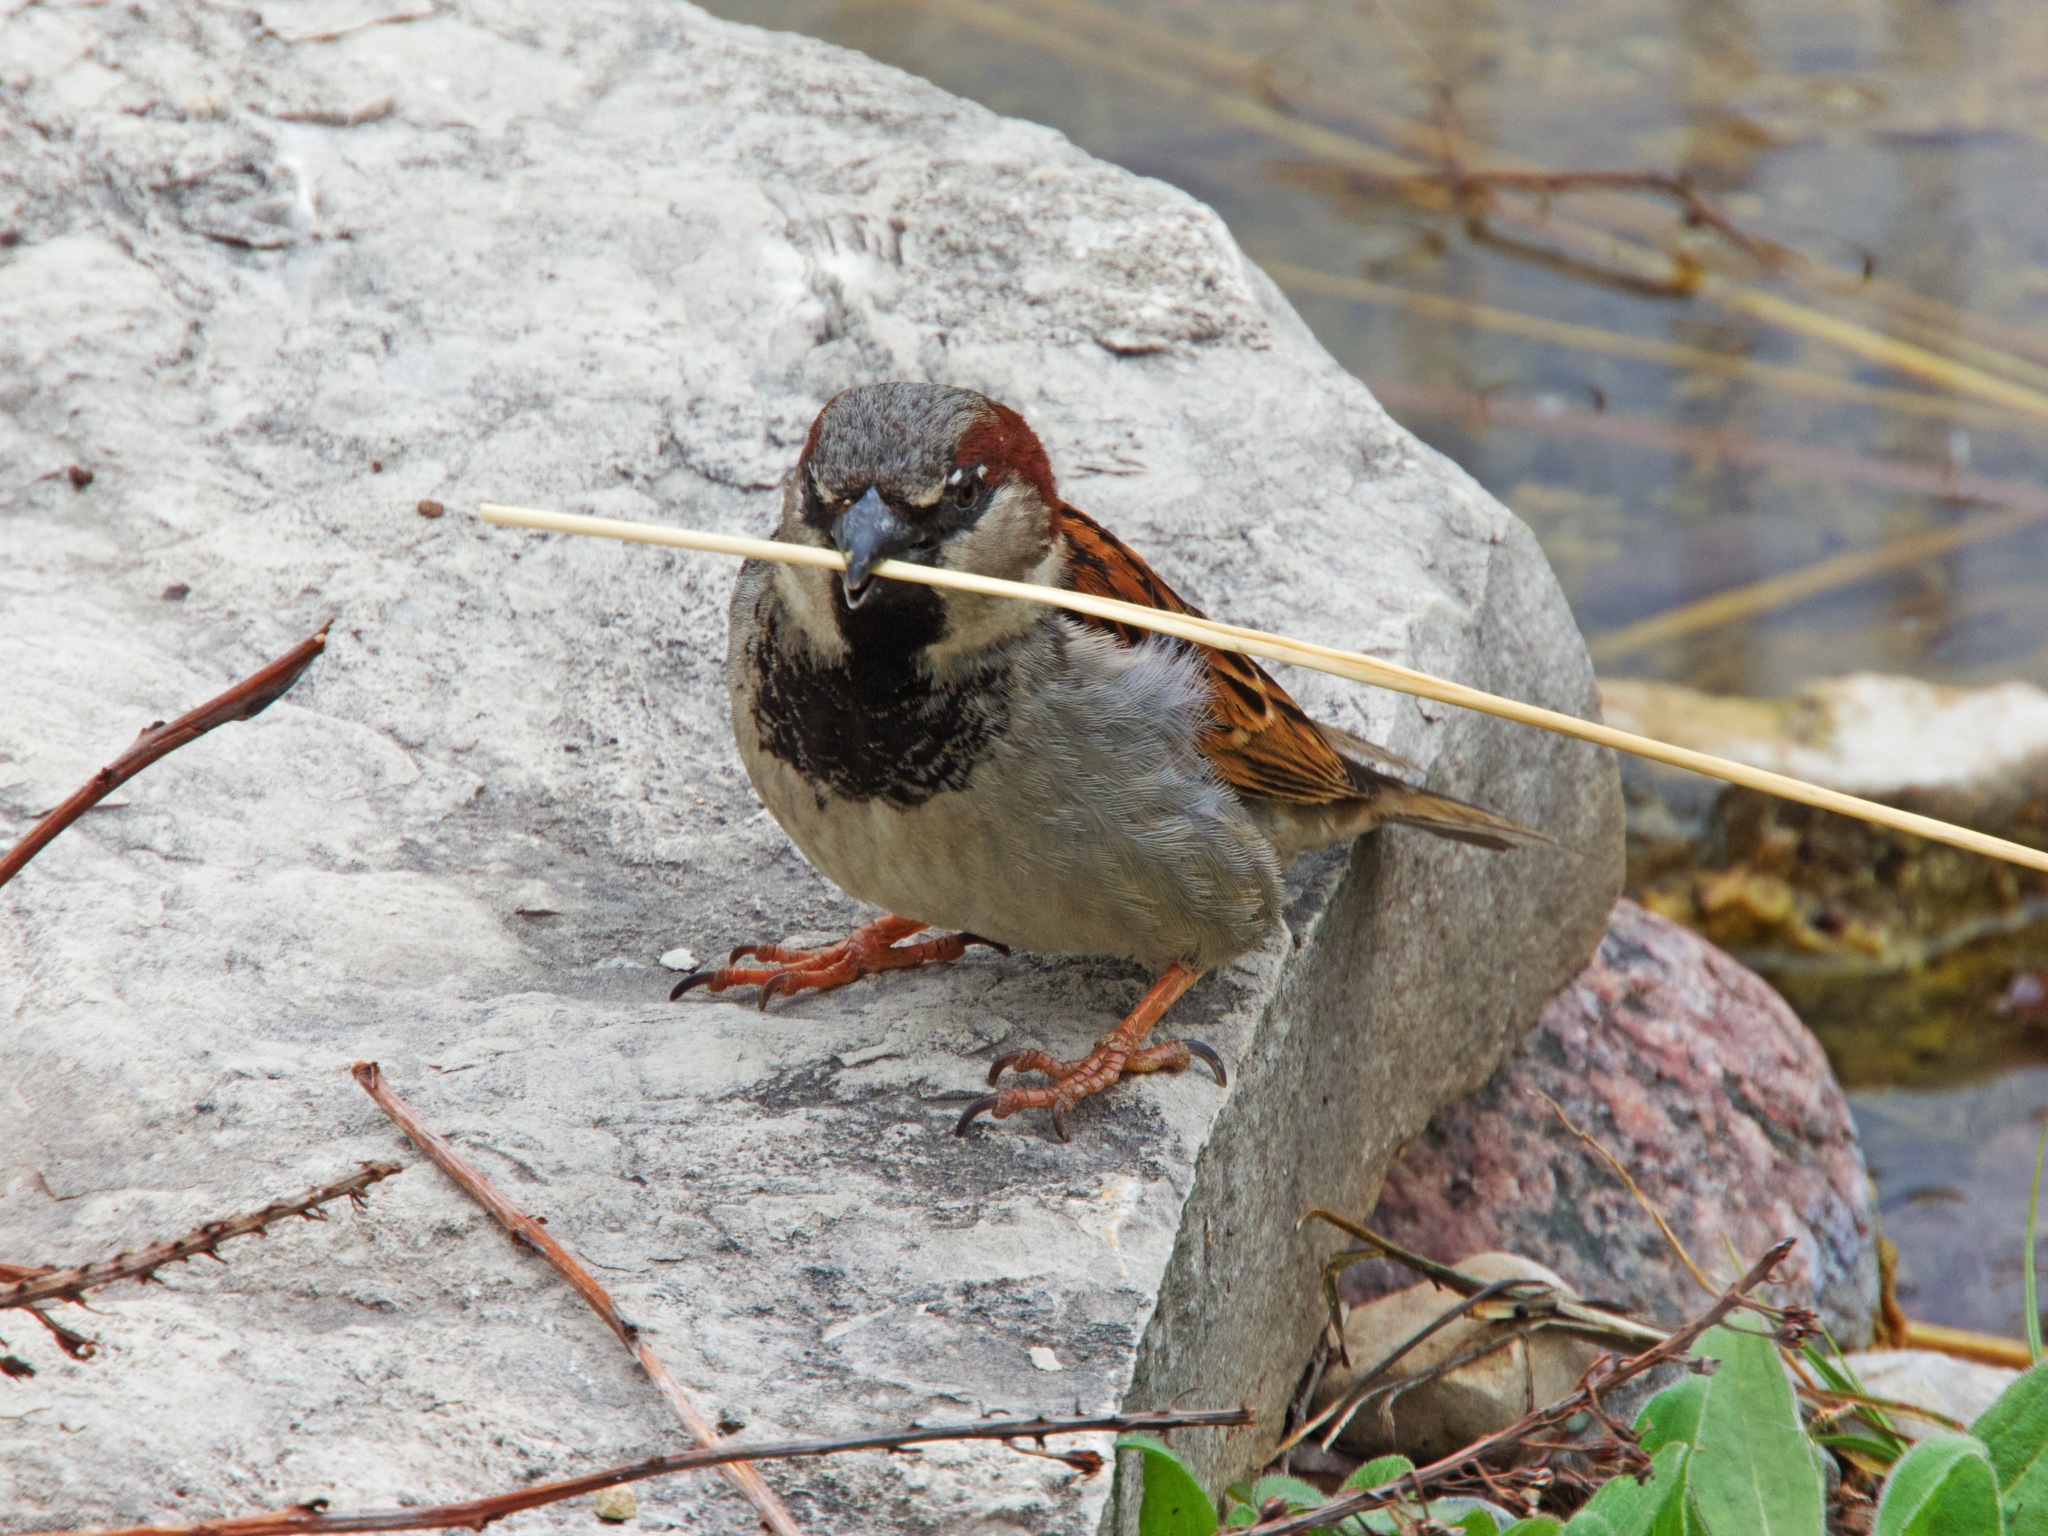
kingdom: Animalia
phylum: Chordata
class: Aves
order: Passeriformes
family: Passeridae
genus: Passer
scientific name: Passer domesticus
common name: House sparrow
